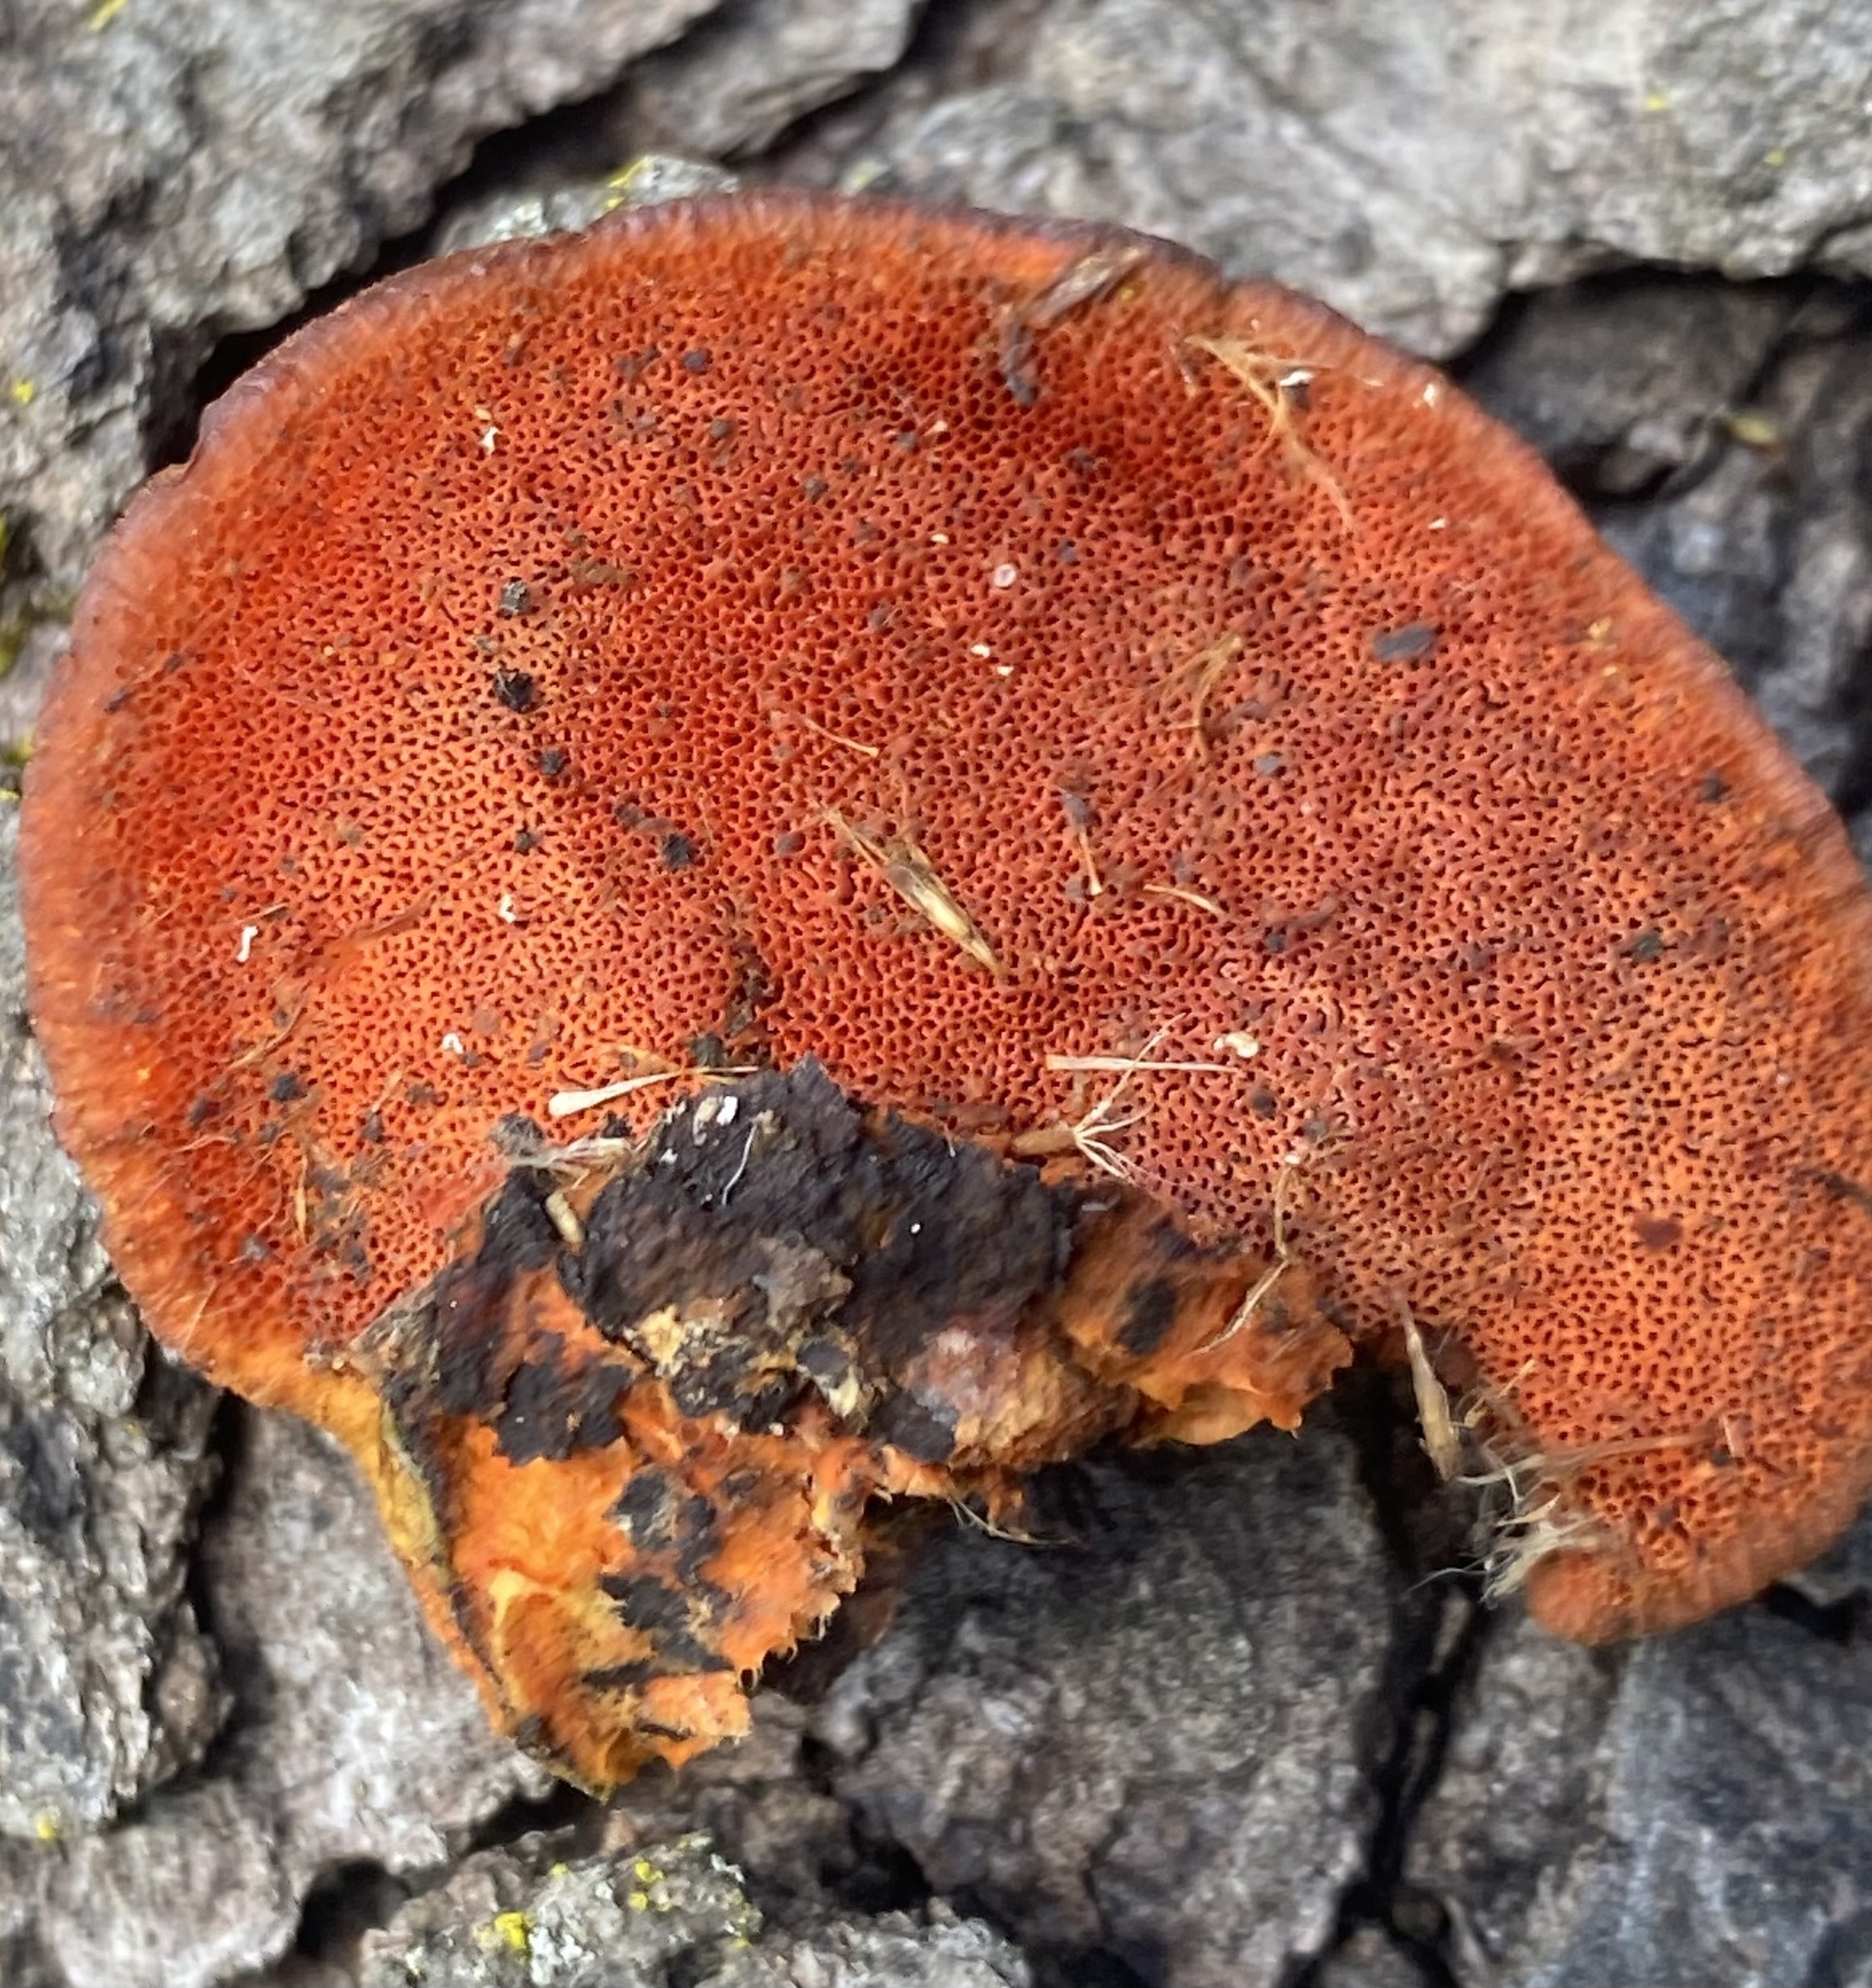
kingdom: Fungi
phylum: Basidiomycota
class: Agaricomycetes
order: Polyporales
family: Polyporaceae
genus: Trametes
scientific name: Trametes cinnabarina
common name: Northern cinnabar polypore
